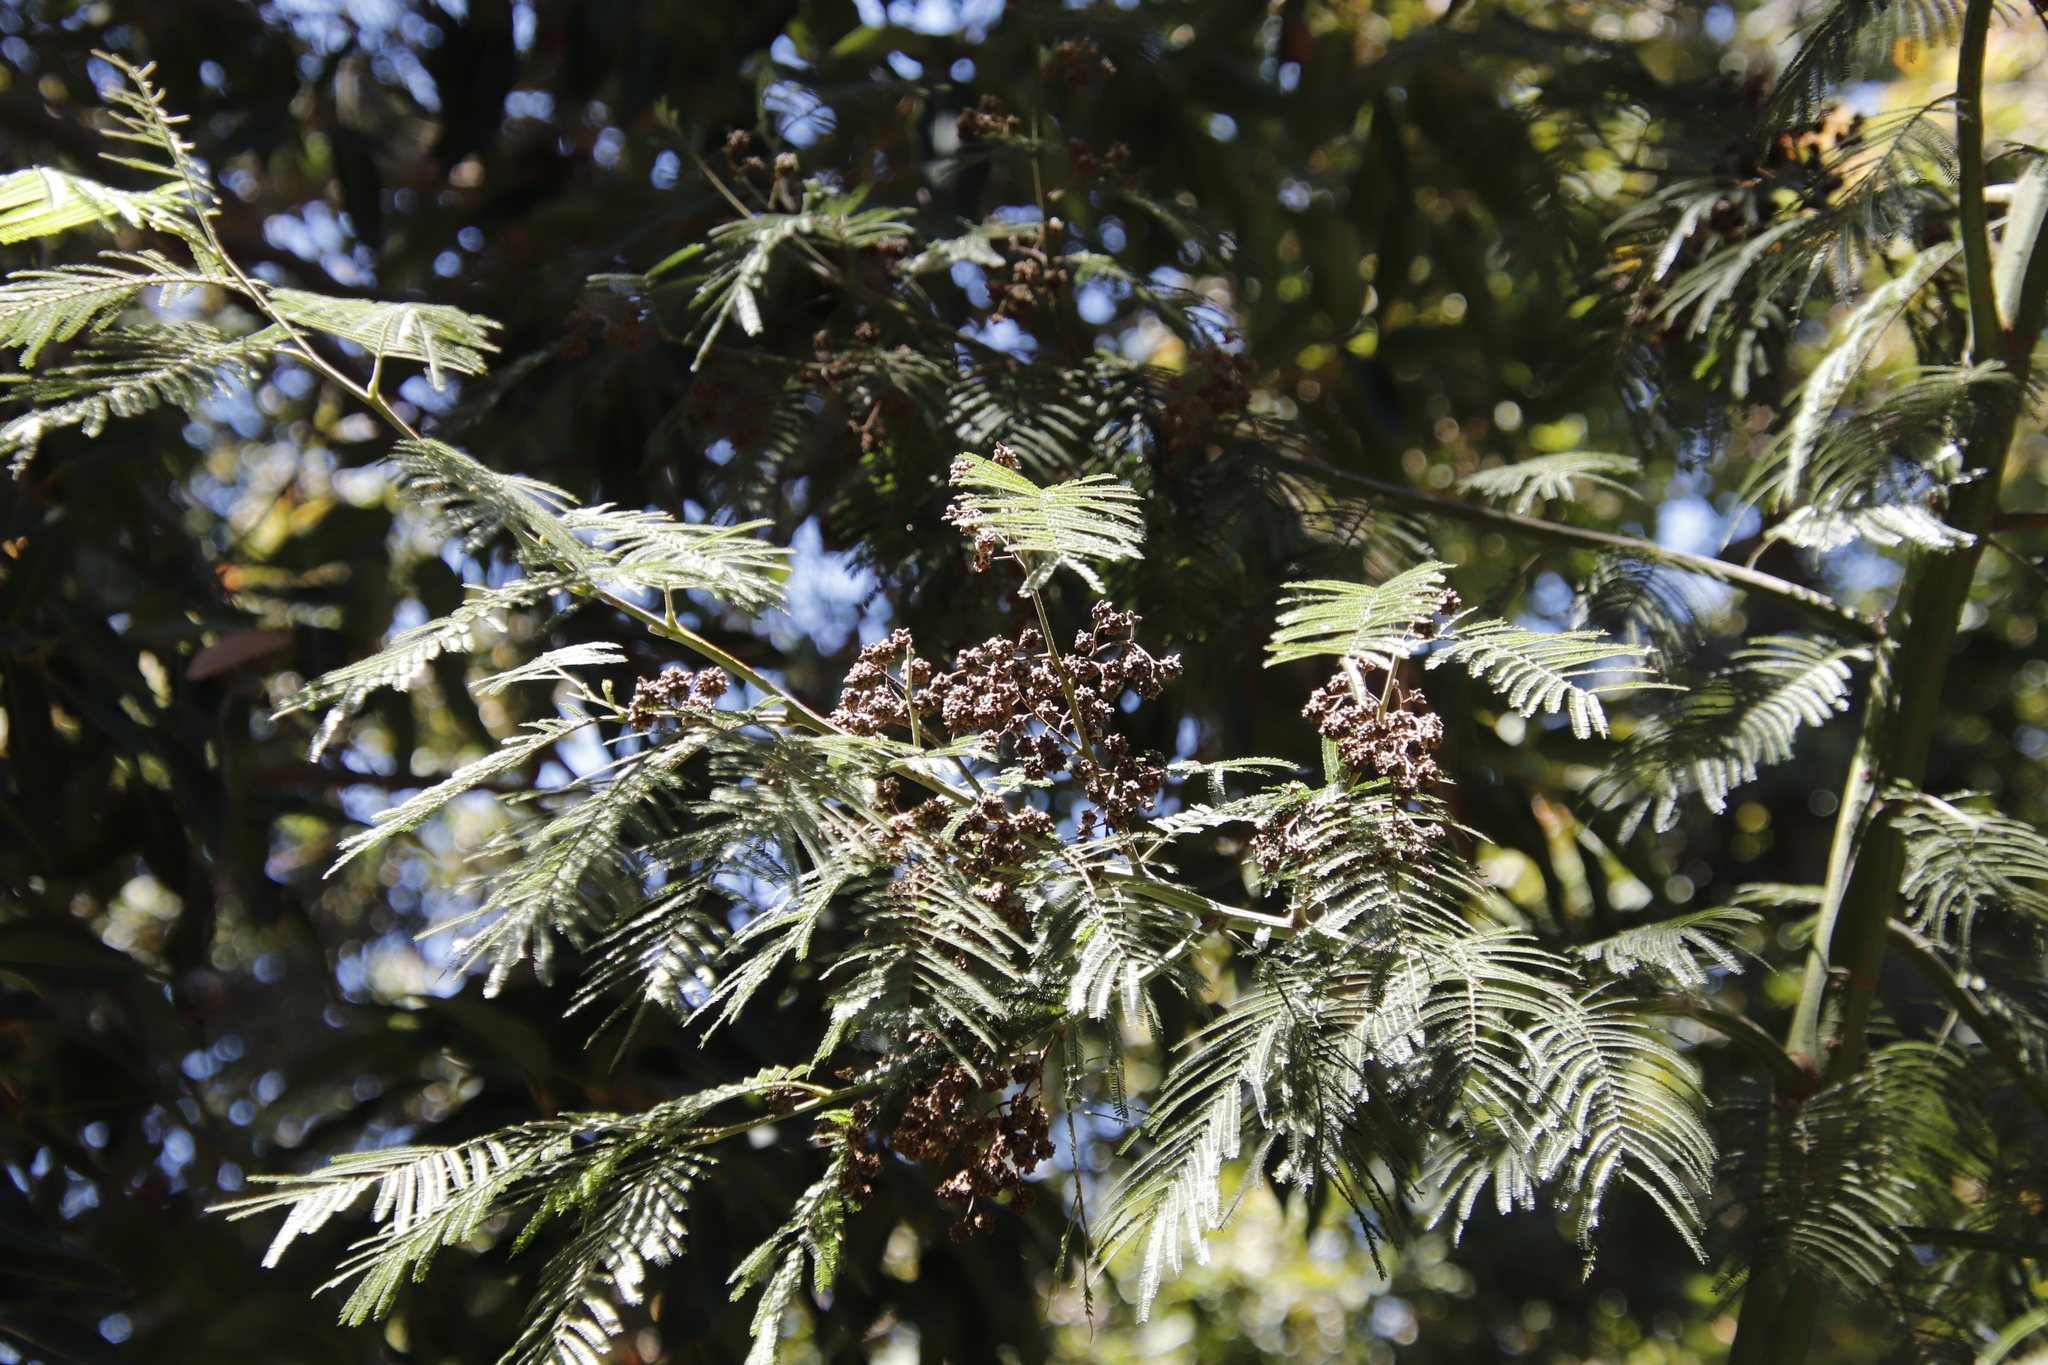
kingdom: Plantae
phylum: Tracheophyta
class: Magnoliopsida
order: Fabales
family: Fabaceae
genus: Acacia
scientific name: Acacia mearnsii
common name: Black wattle
